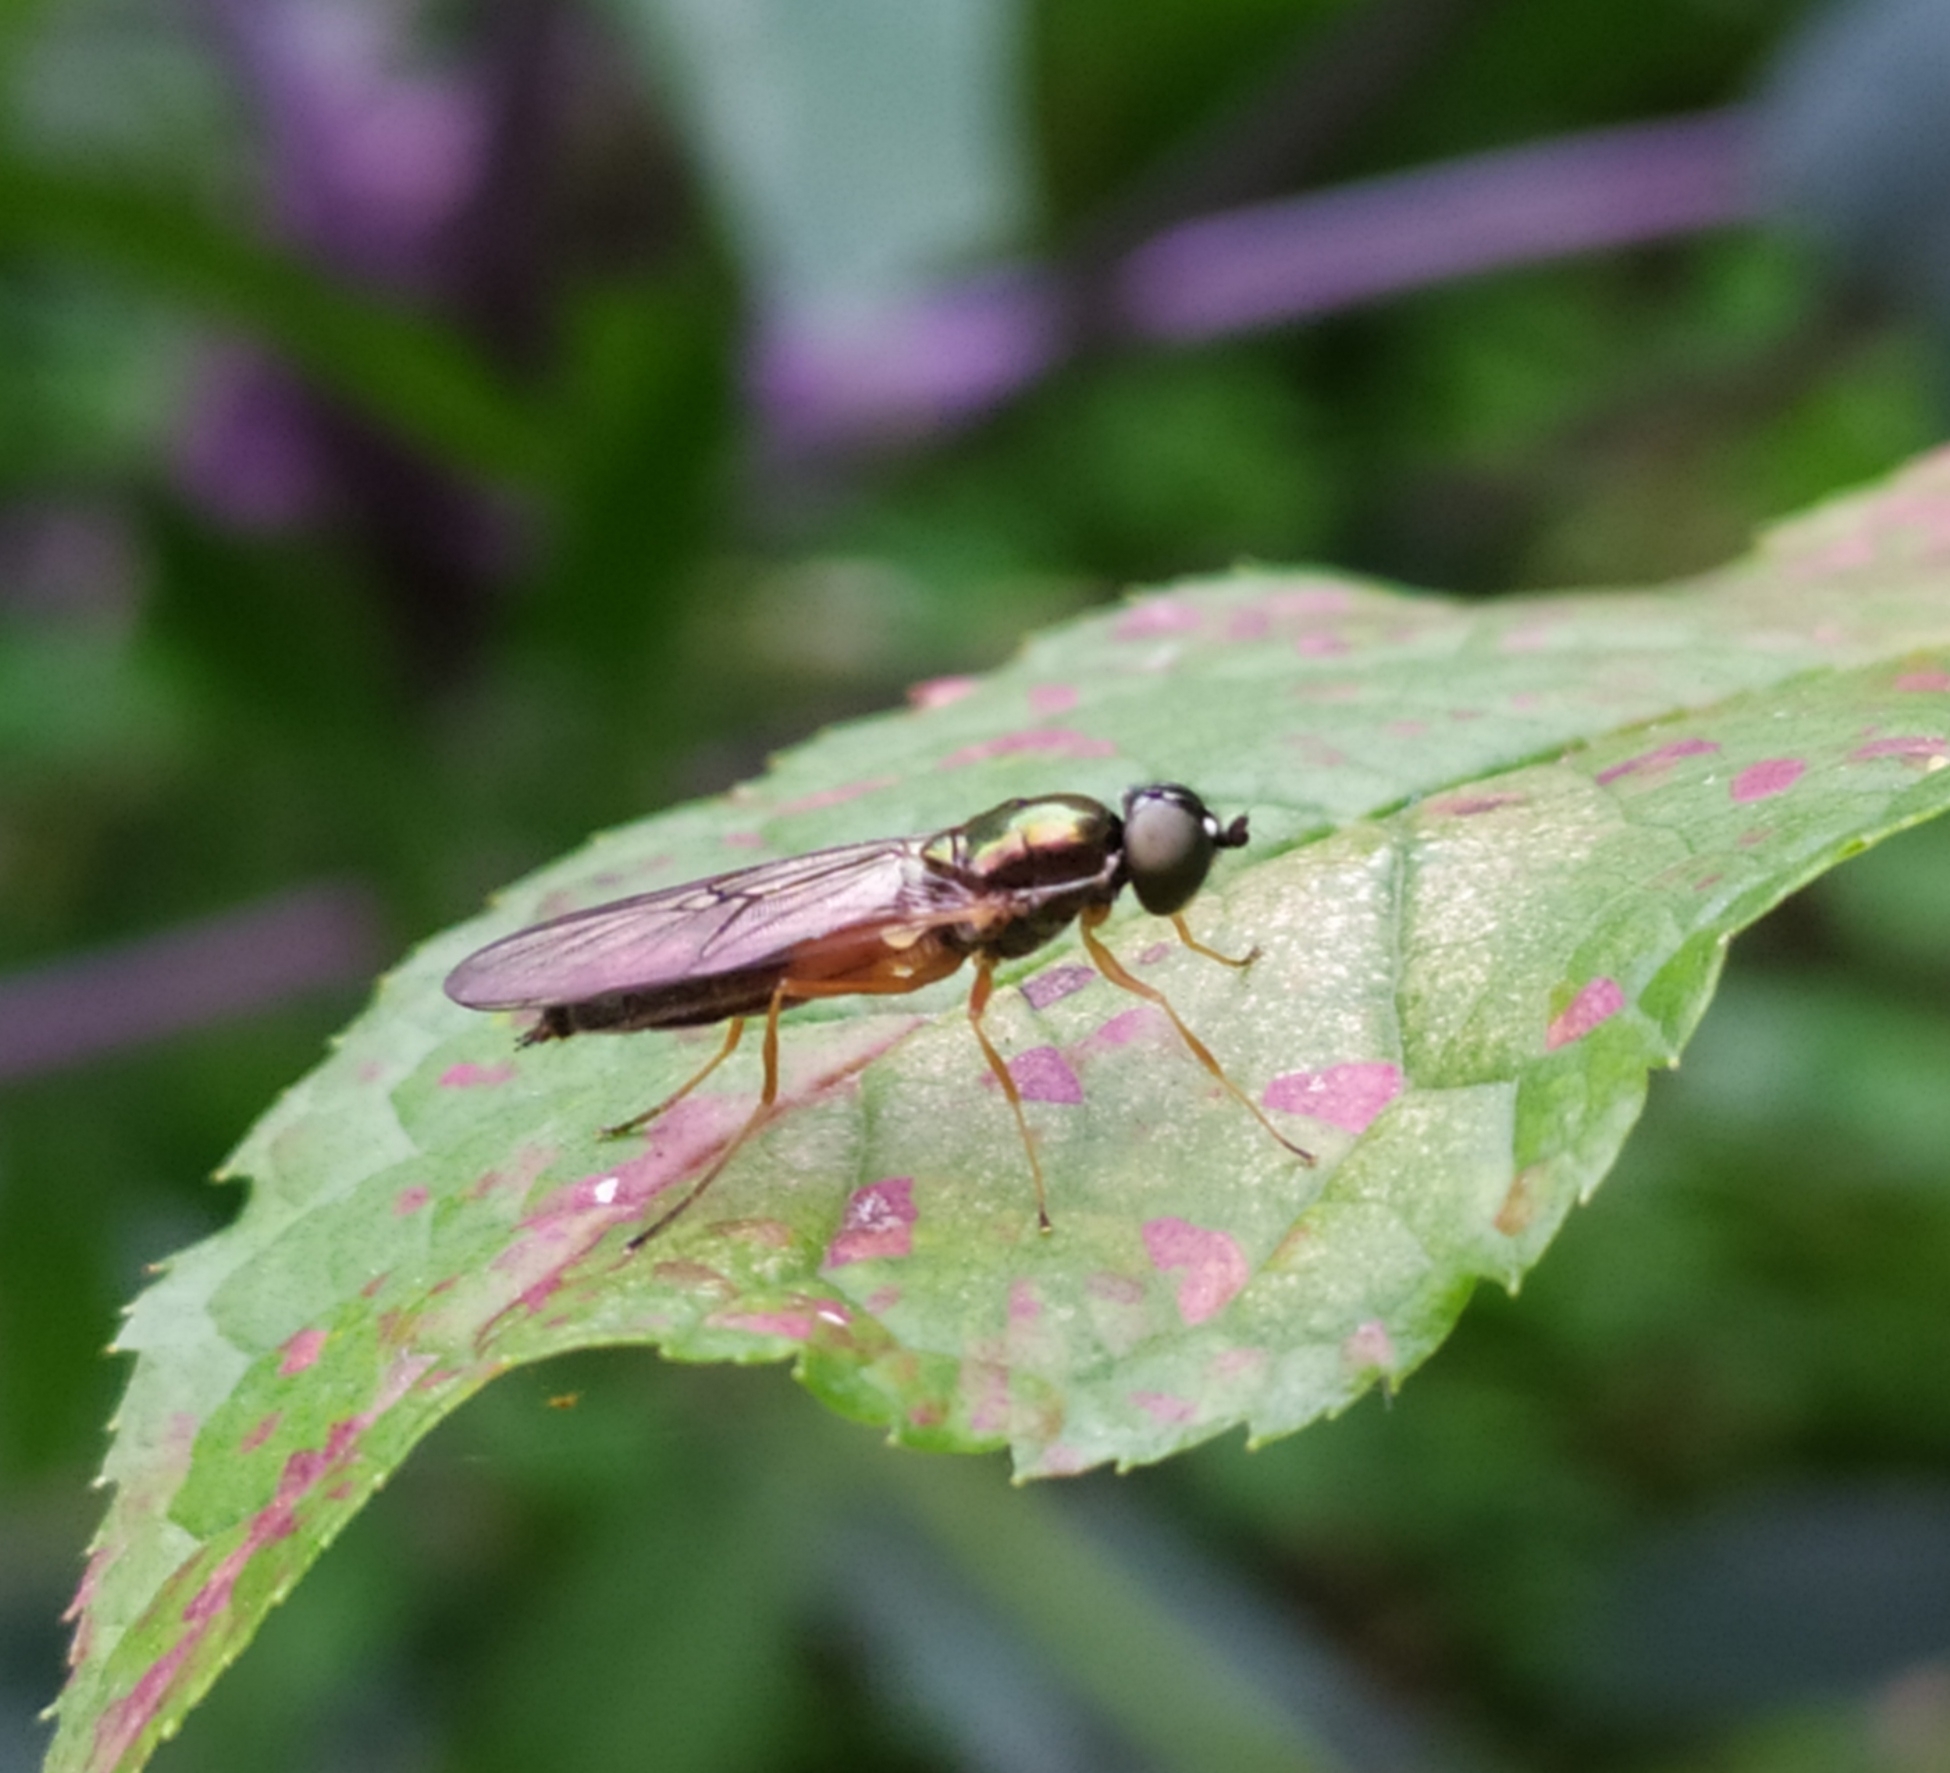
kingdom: Animalia
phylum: Arthropoda
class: Insecta
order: Diptera
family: Stratiomyidae
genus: Sargus
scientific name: Sargus bipunctatus
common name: Twin-spot centurion
